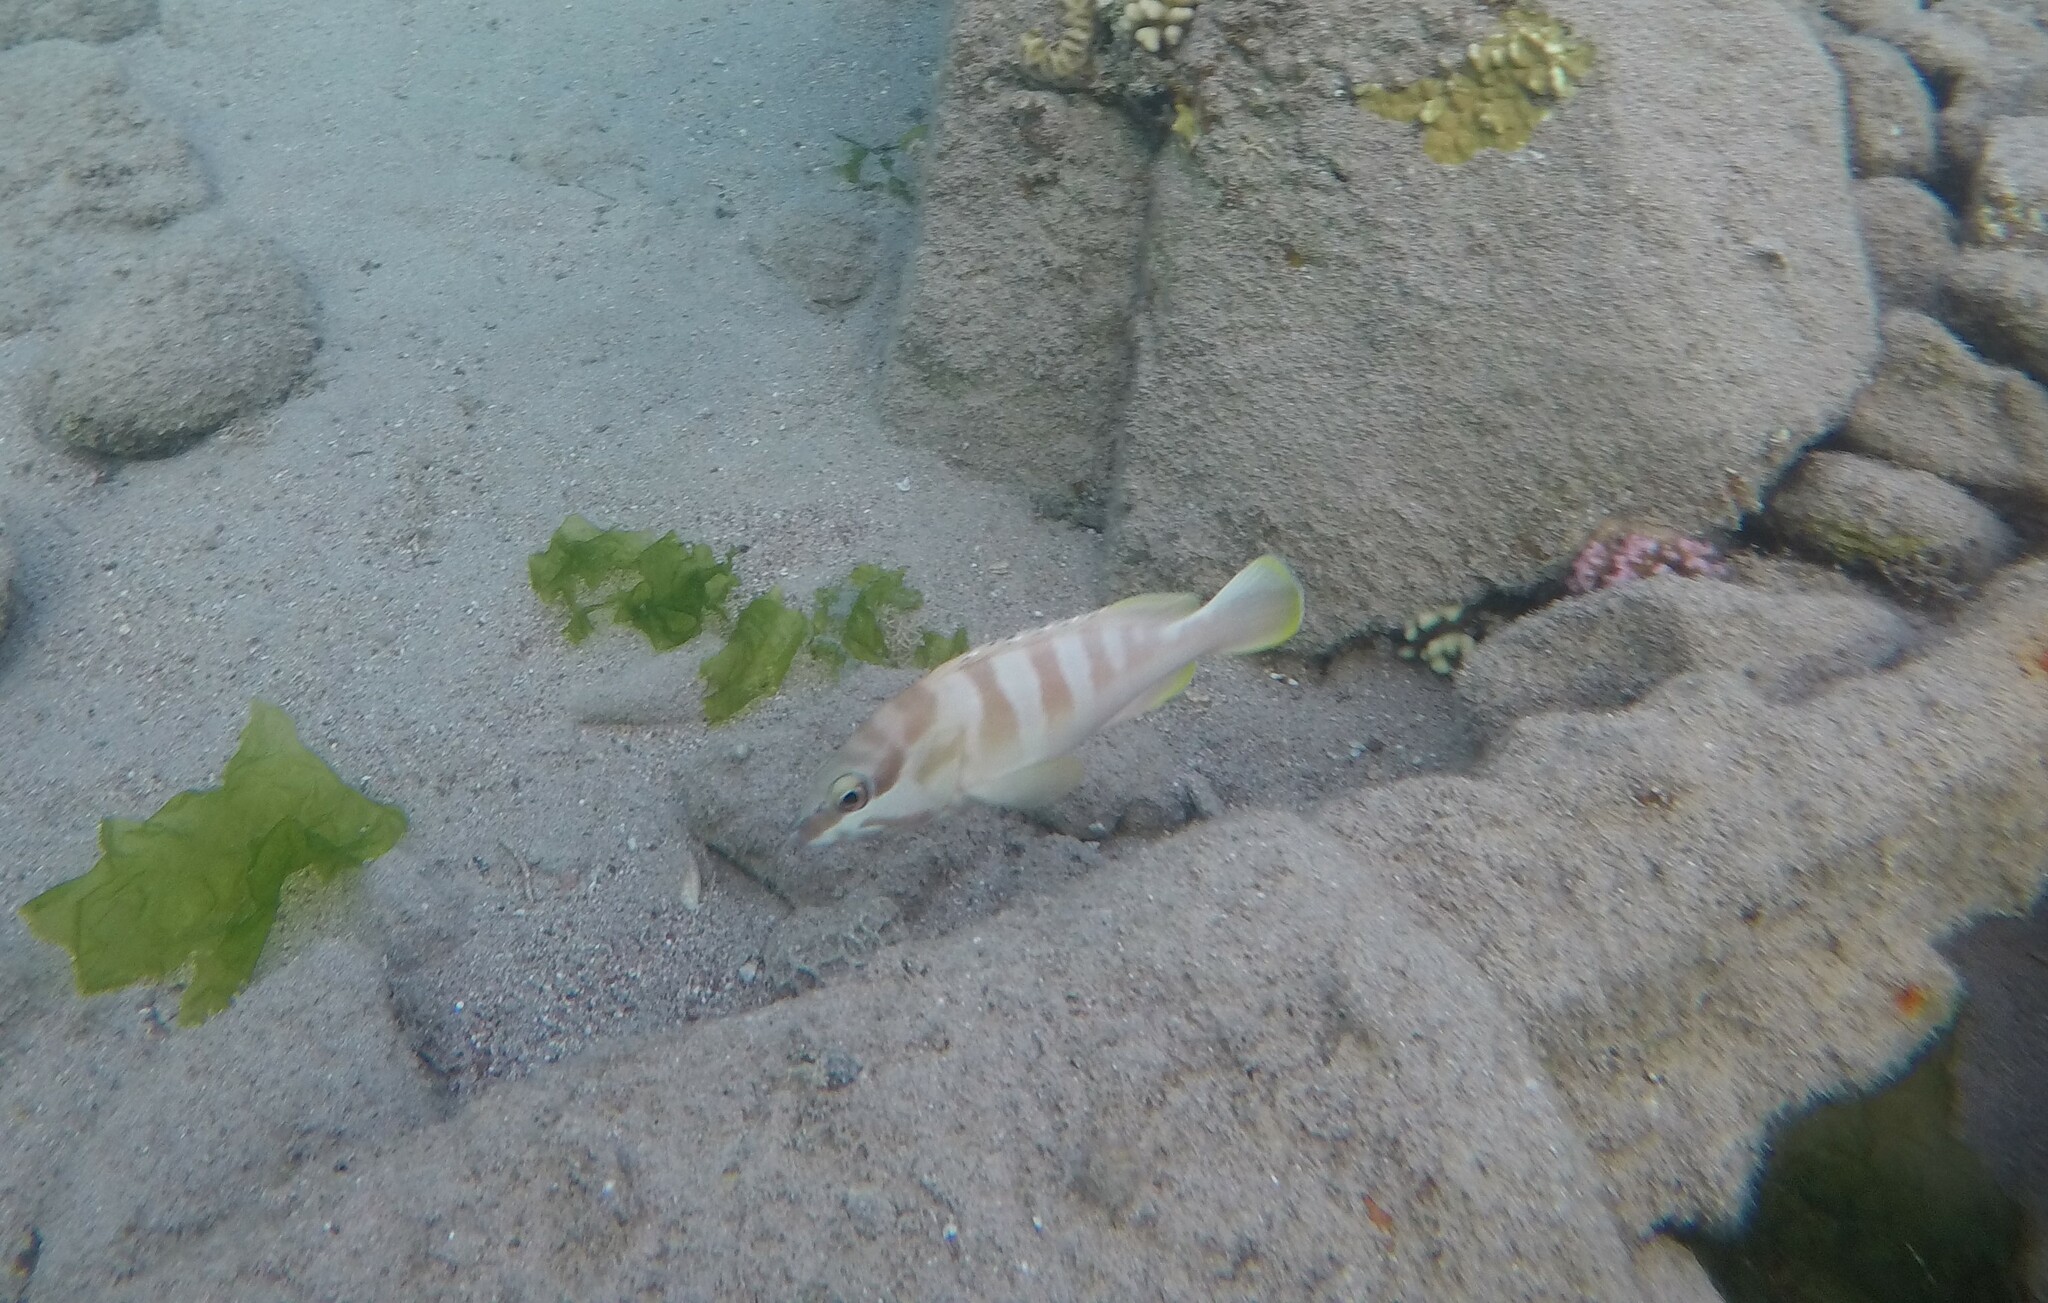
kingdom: Animalia
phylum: Chordata
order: Perciformes
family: Serranidae
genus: Epinephelus
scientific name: Epinephelus fasciatus
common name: Blacktip grouper
